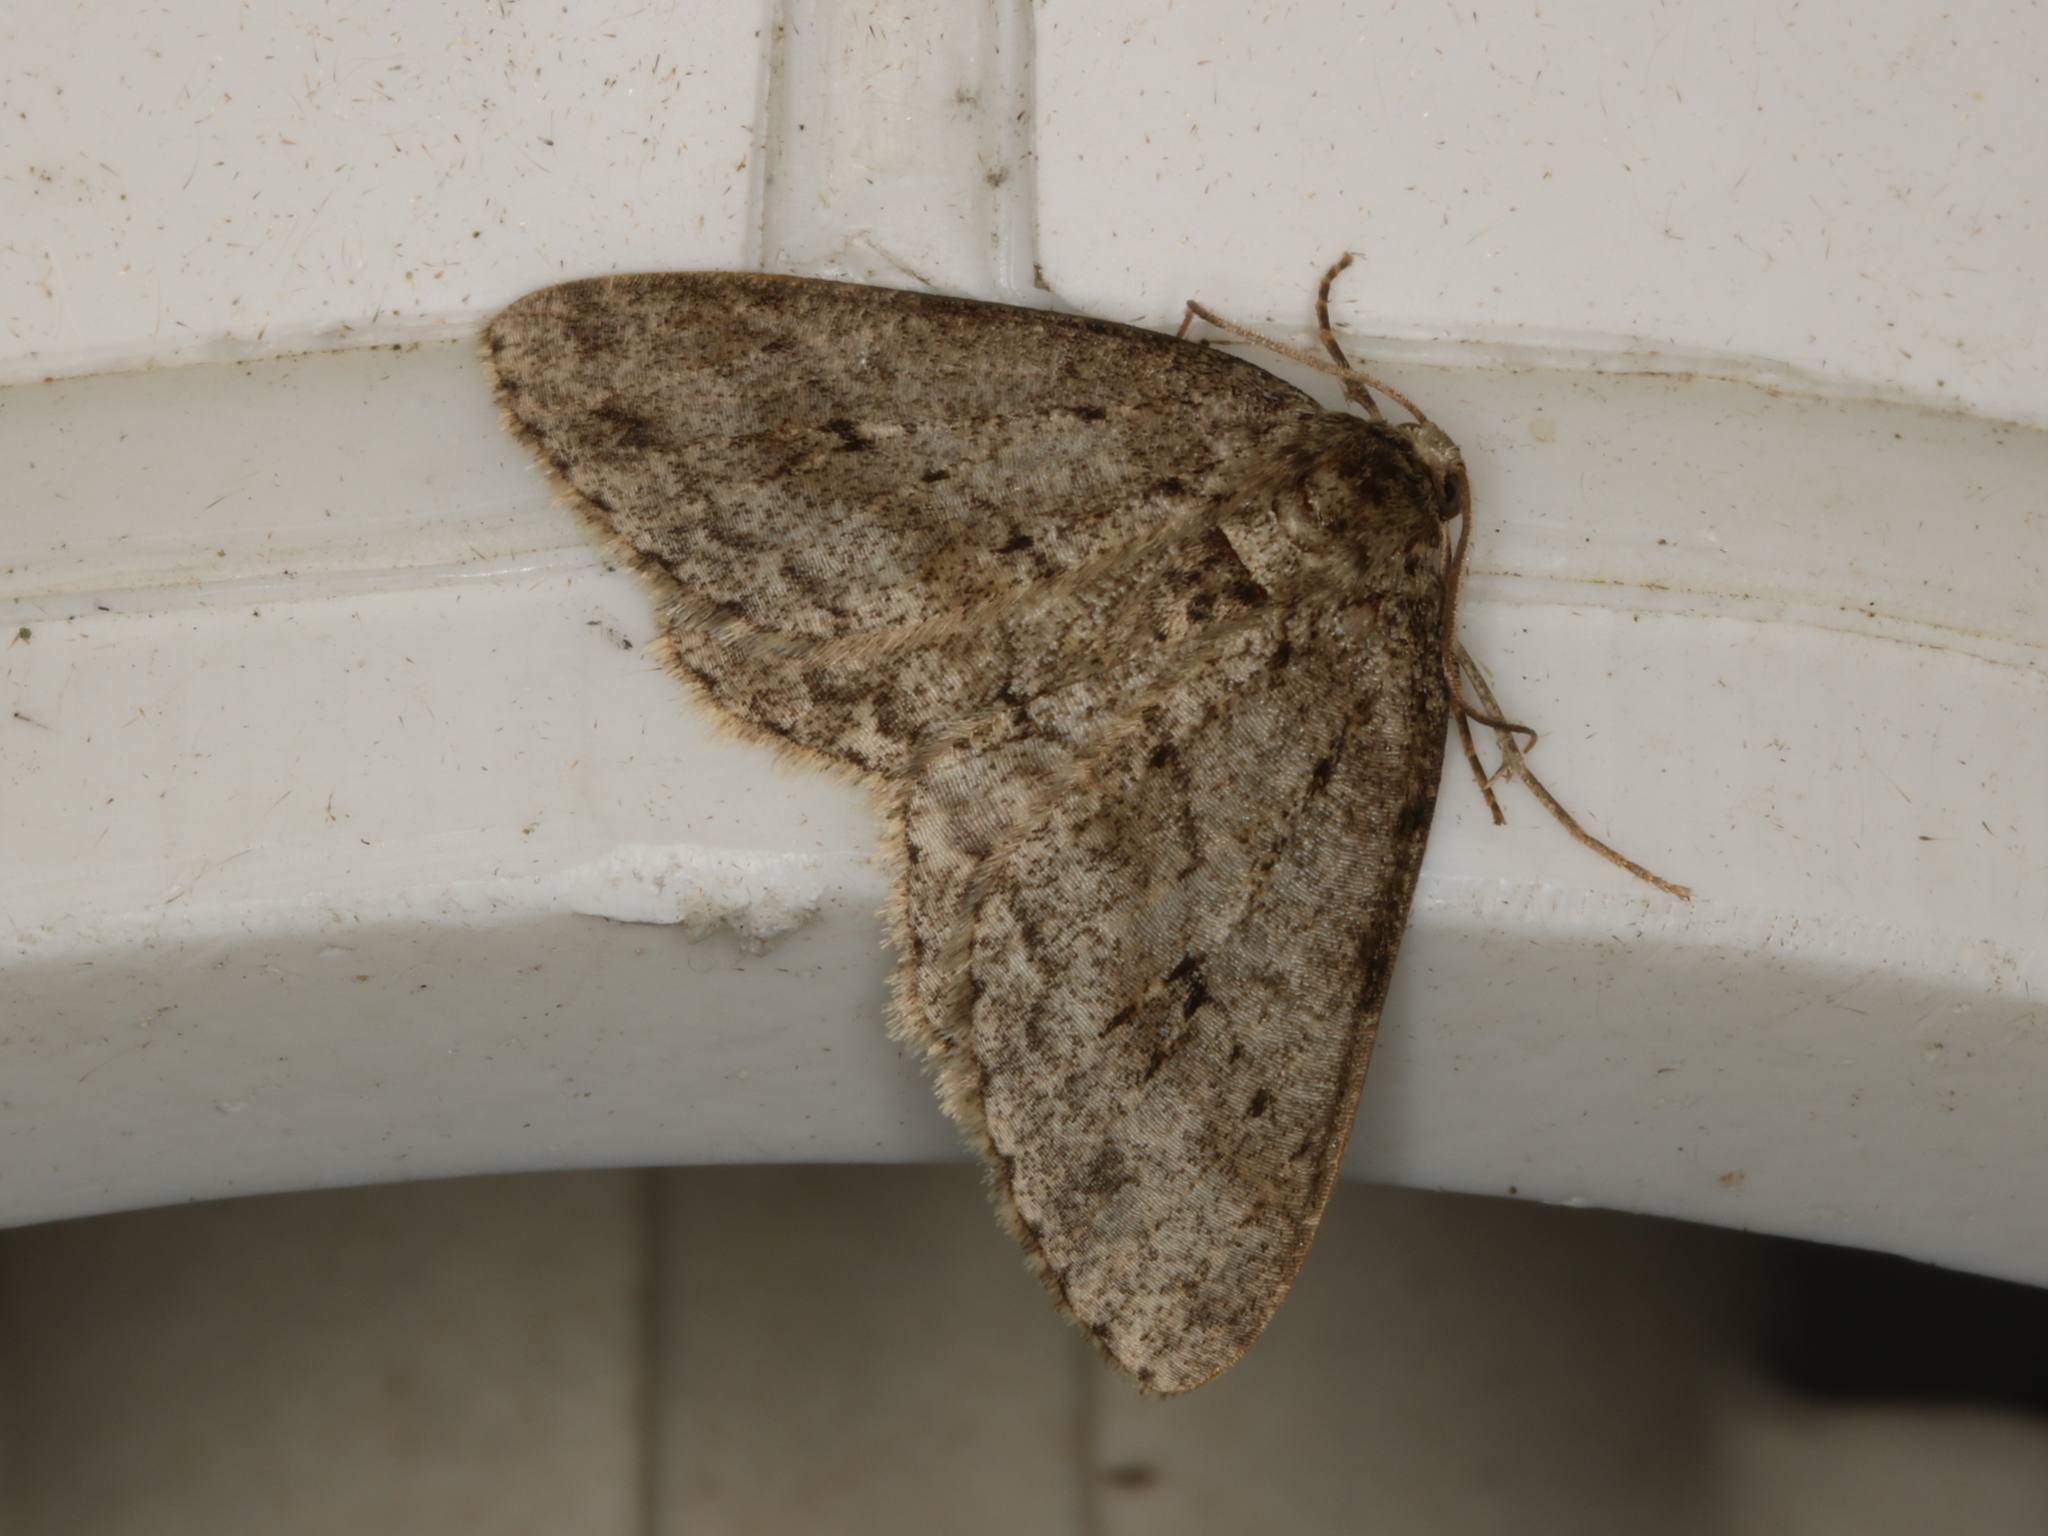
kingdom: Animalia
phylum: Arthropoda
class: Insecta
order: Lepidoptera
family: Geometridae
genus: Ectropis
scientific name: Ectropis crepuscularia
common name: Engrailed
